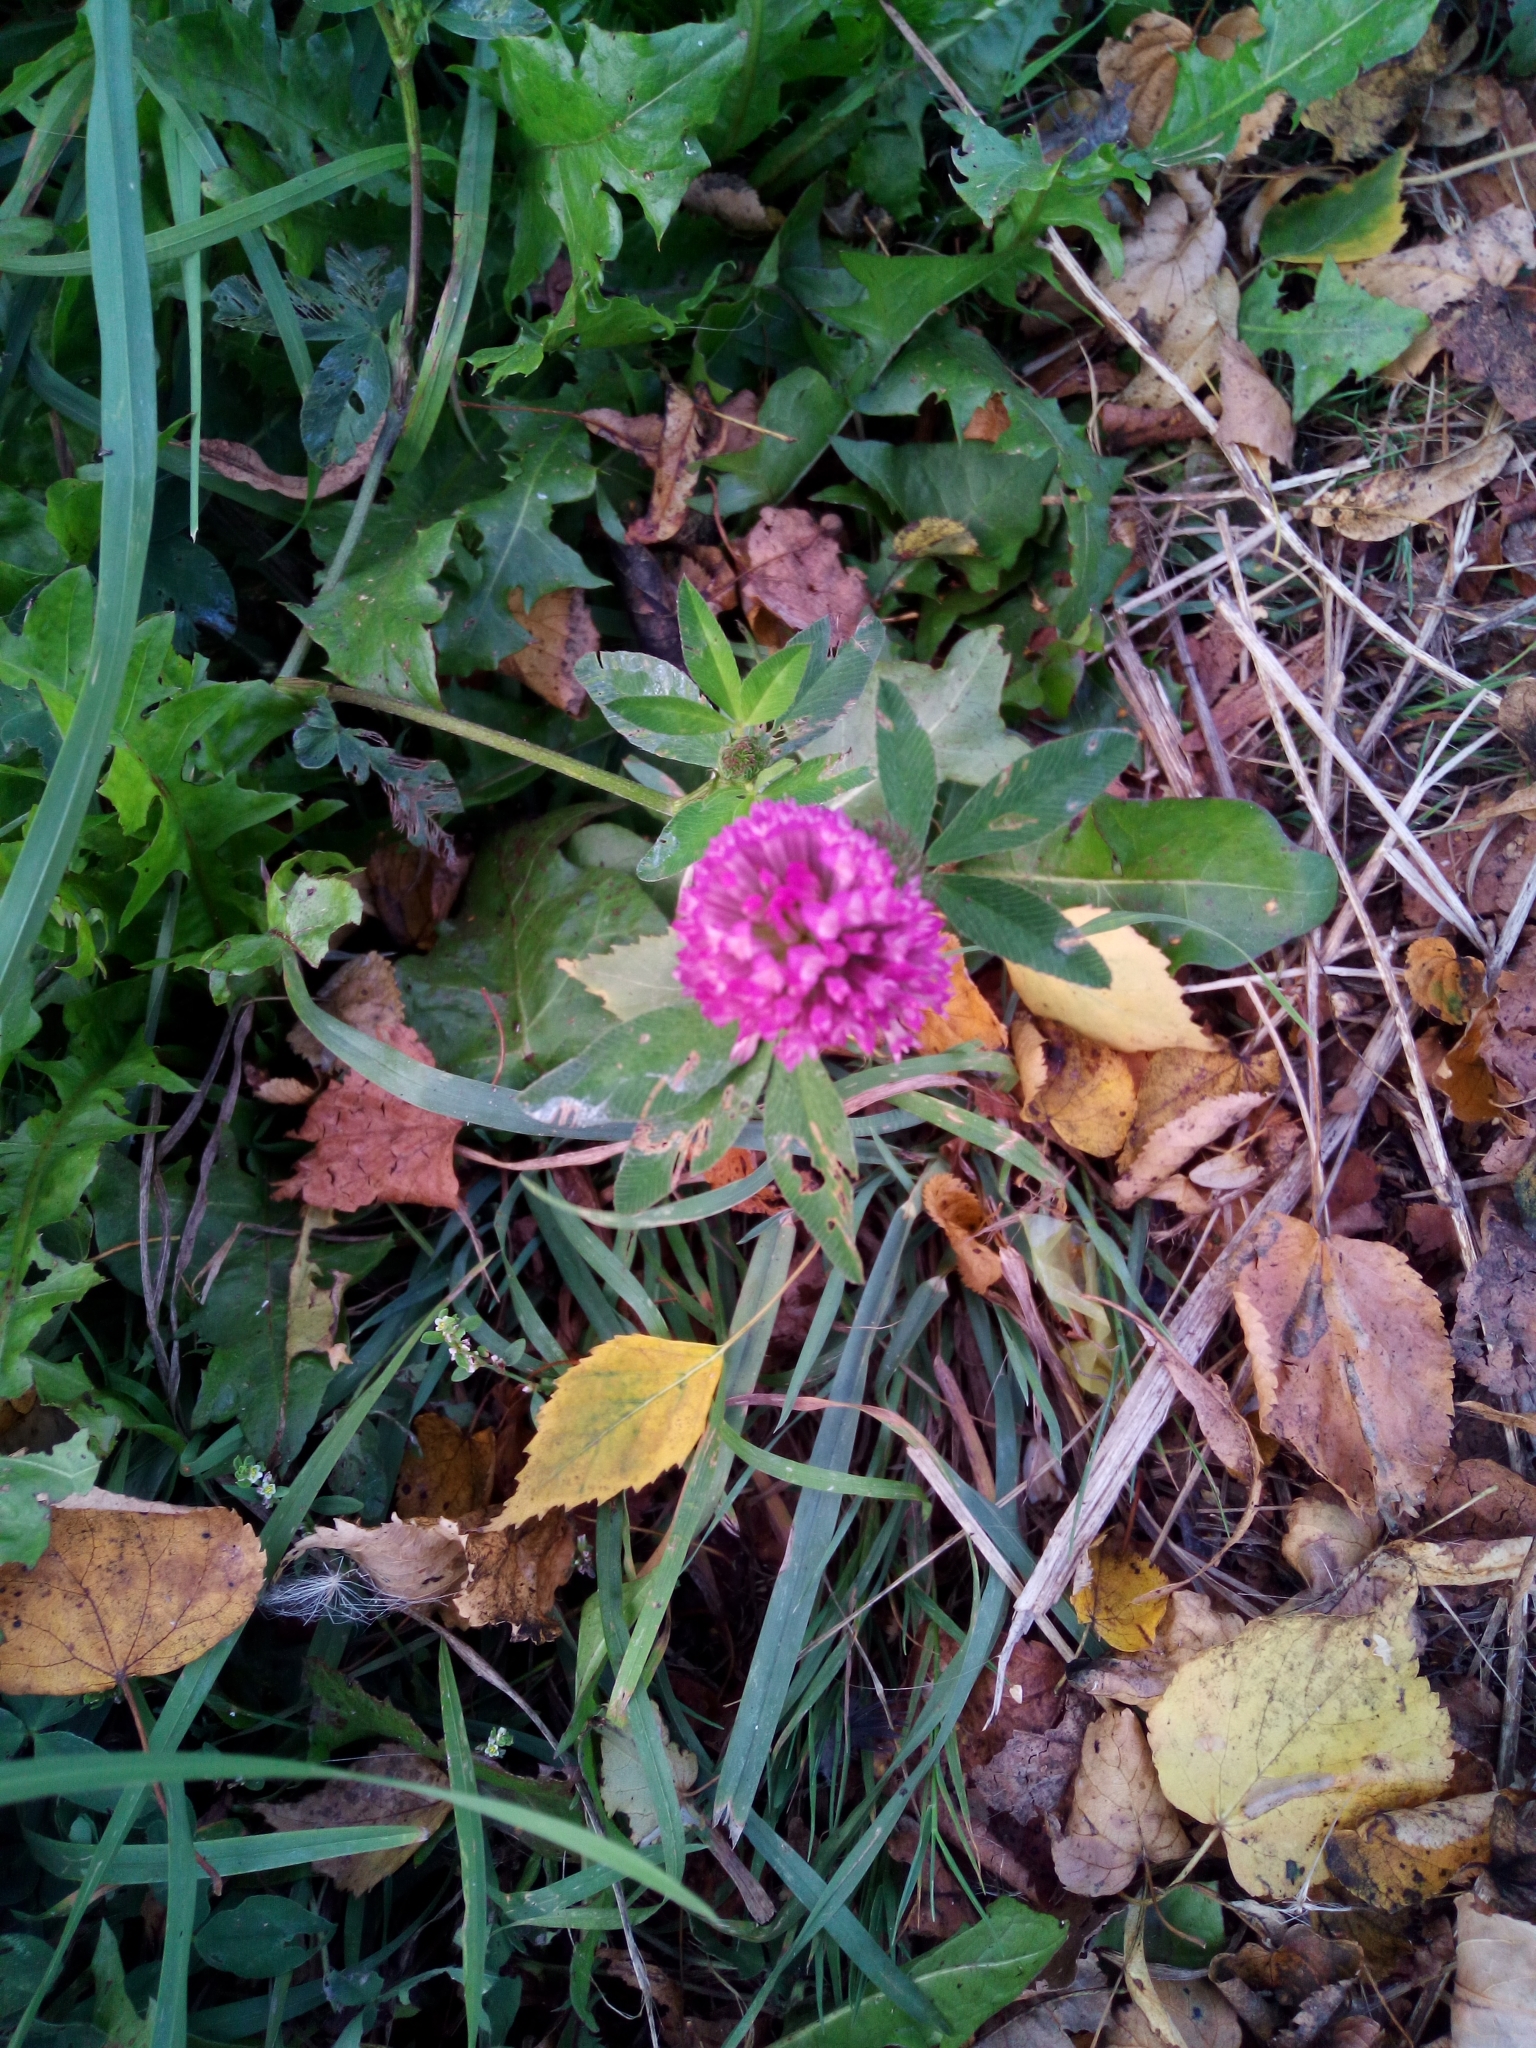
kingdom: Plantae
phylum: Tracheophyta
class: Magnoliopsida
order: Fabales
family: Fabaceae
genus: Trifolium
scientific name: Trifolium pratense
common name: Red clover
